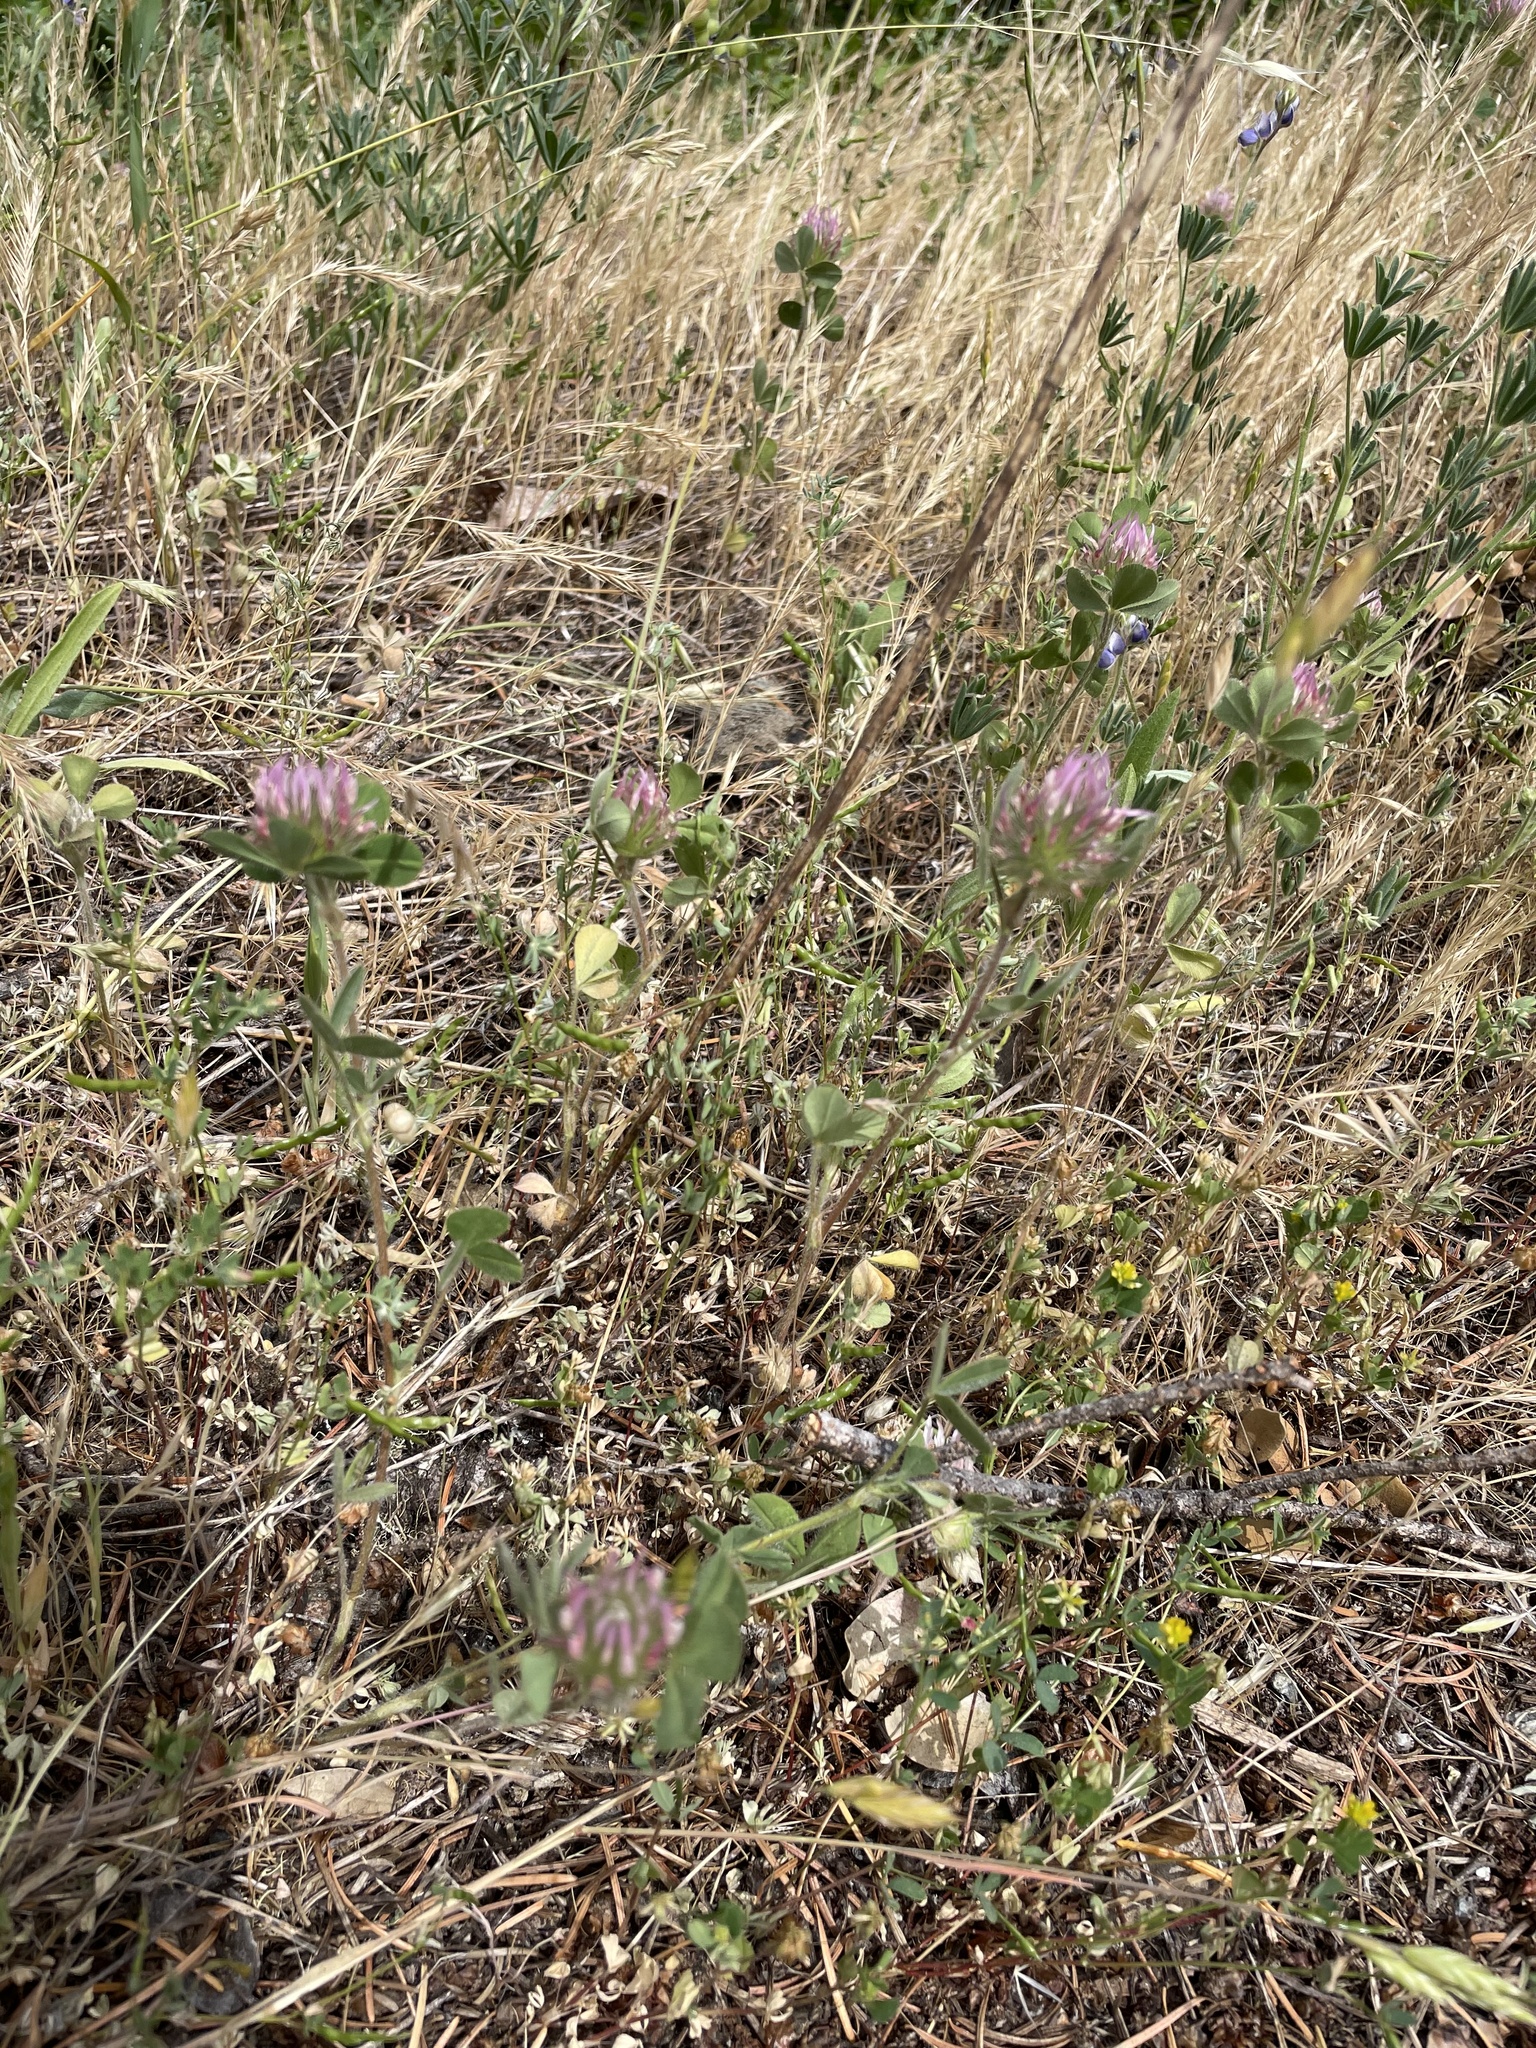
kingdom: Plantae
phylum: Tracheophyta
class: Magnoliopsida
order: Fabales
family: Fabaceae
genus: Trifolium
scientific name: Trifolium hirtum
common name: Rose clover
